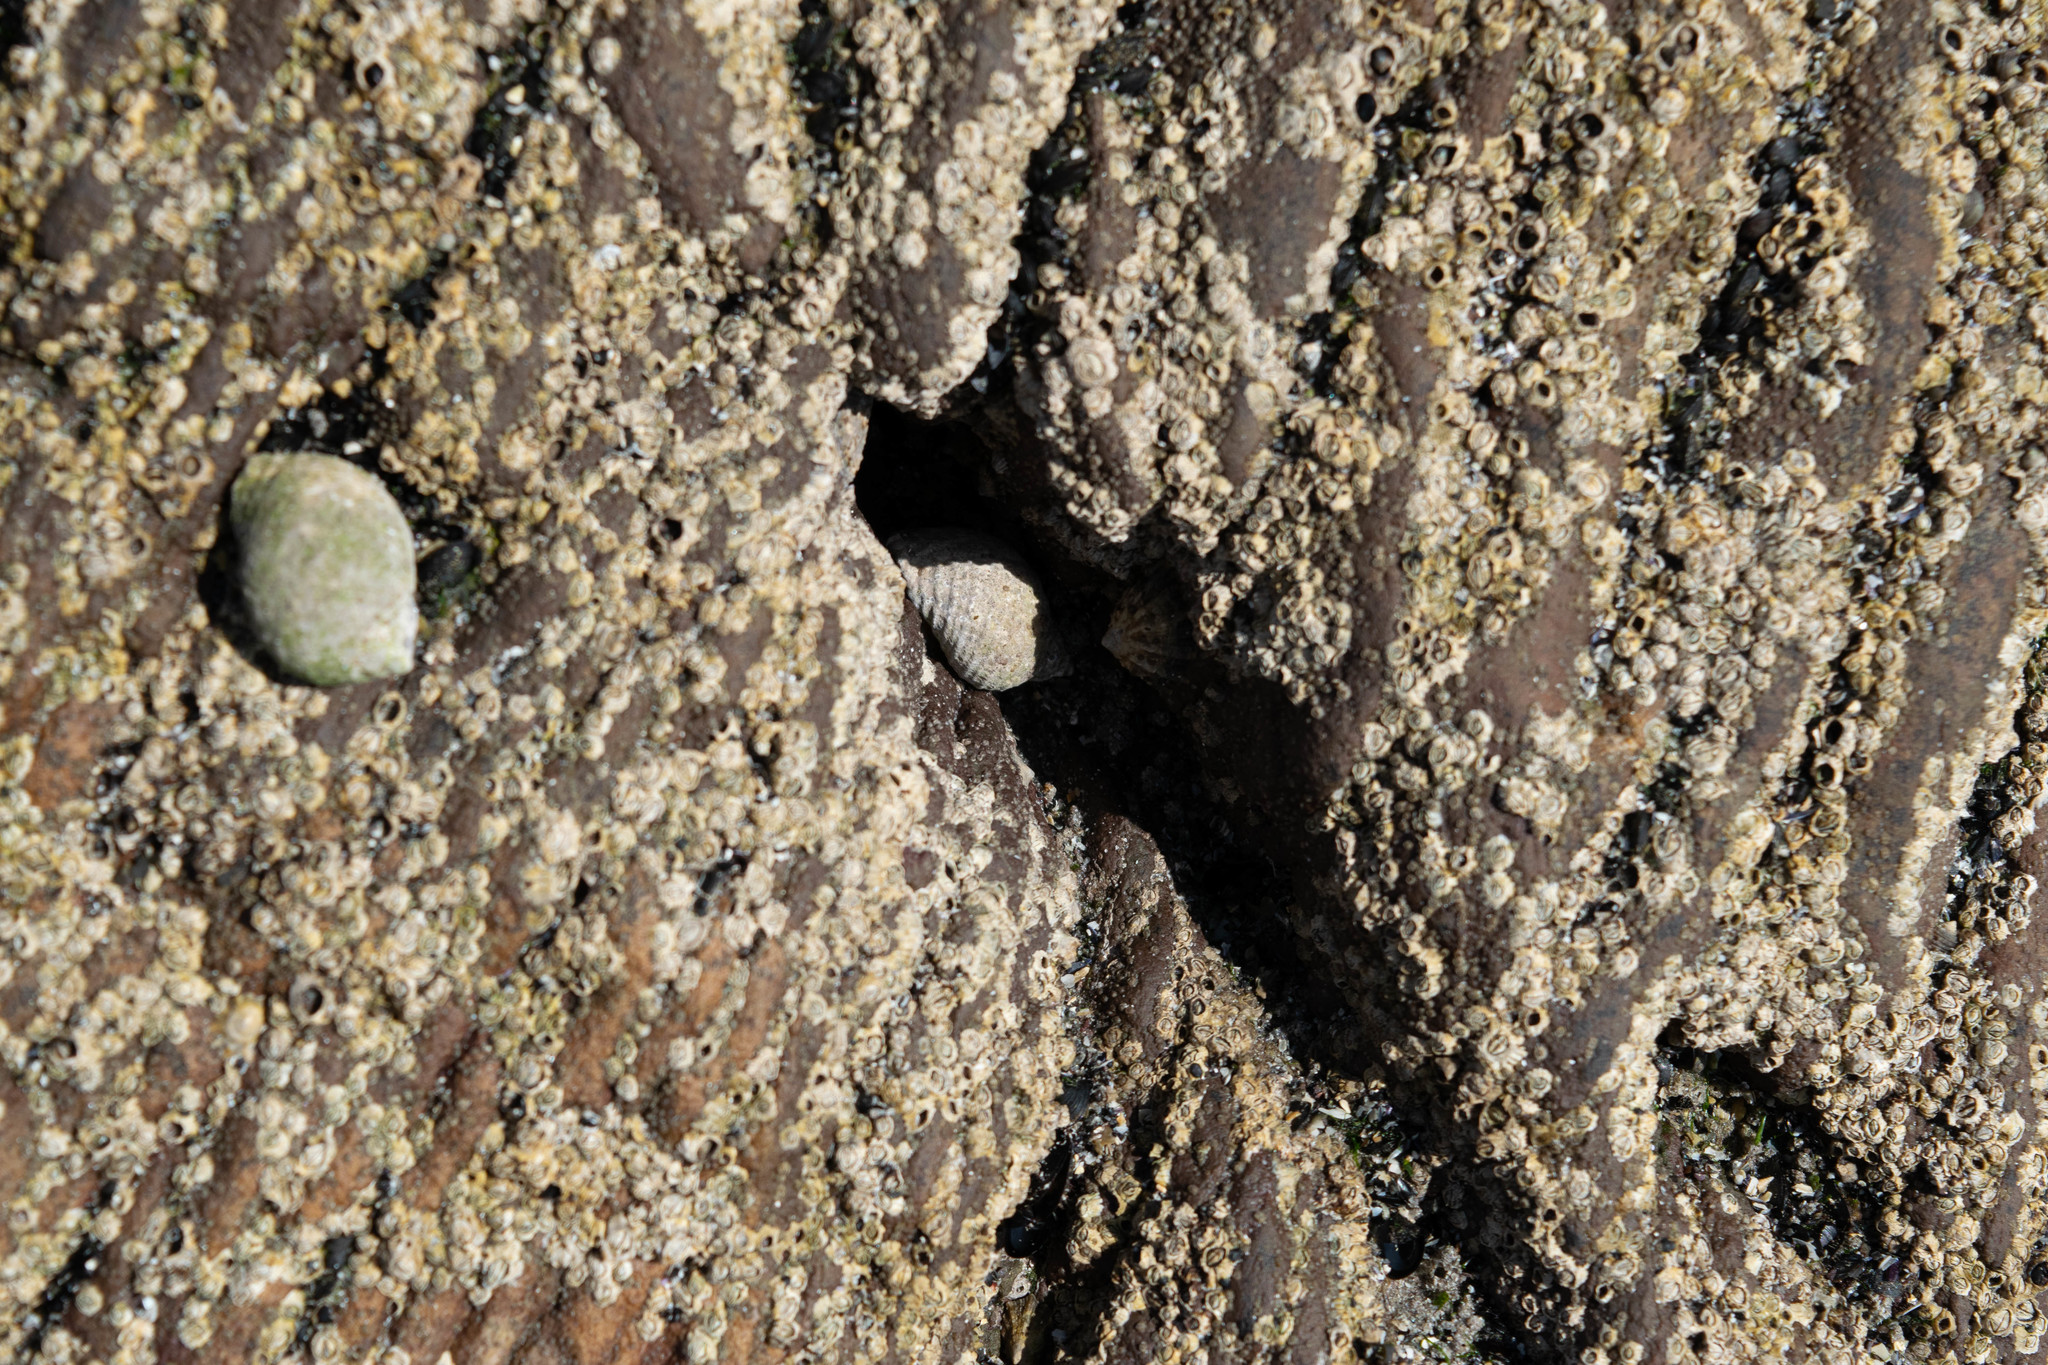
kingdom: Animalia
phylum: Mollusca
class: Gastropoda
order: Neogastropoda
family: Muricidae
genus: Nucella
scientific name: Nucella lapillus
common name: Dog whelk
